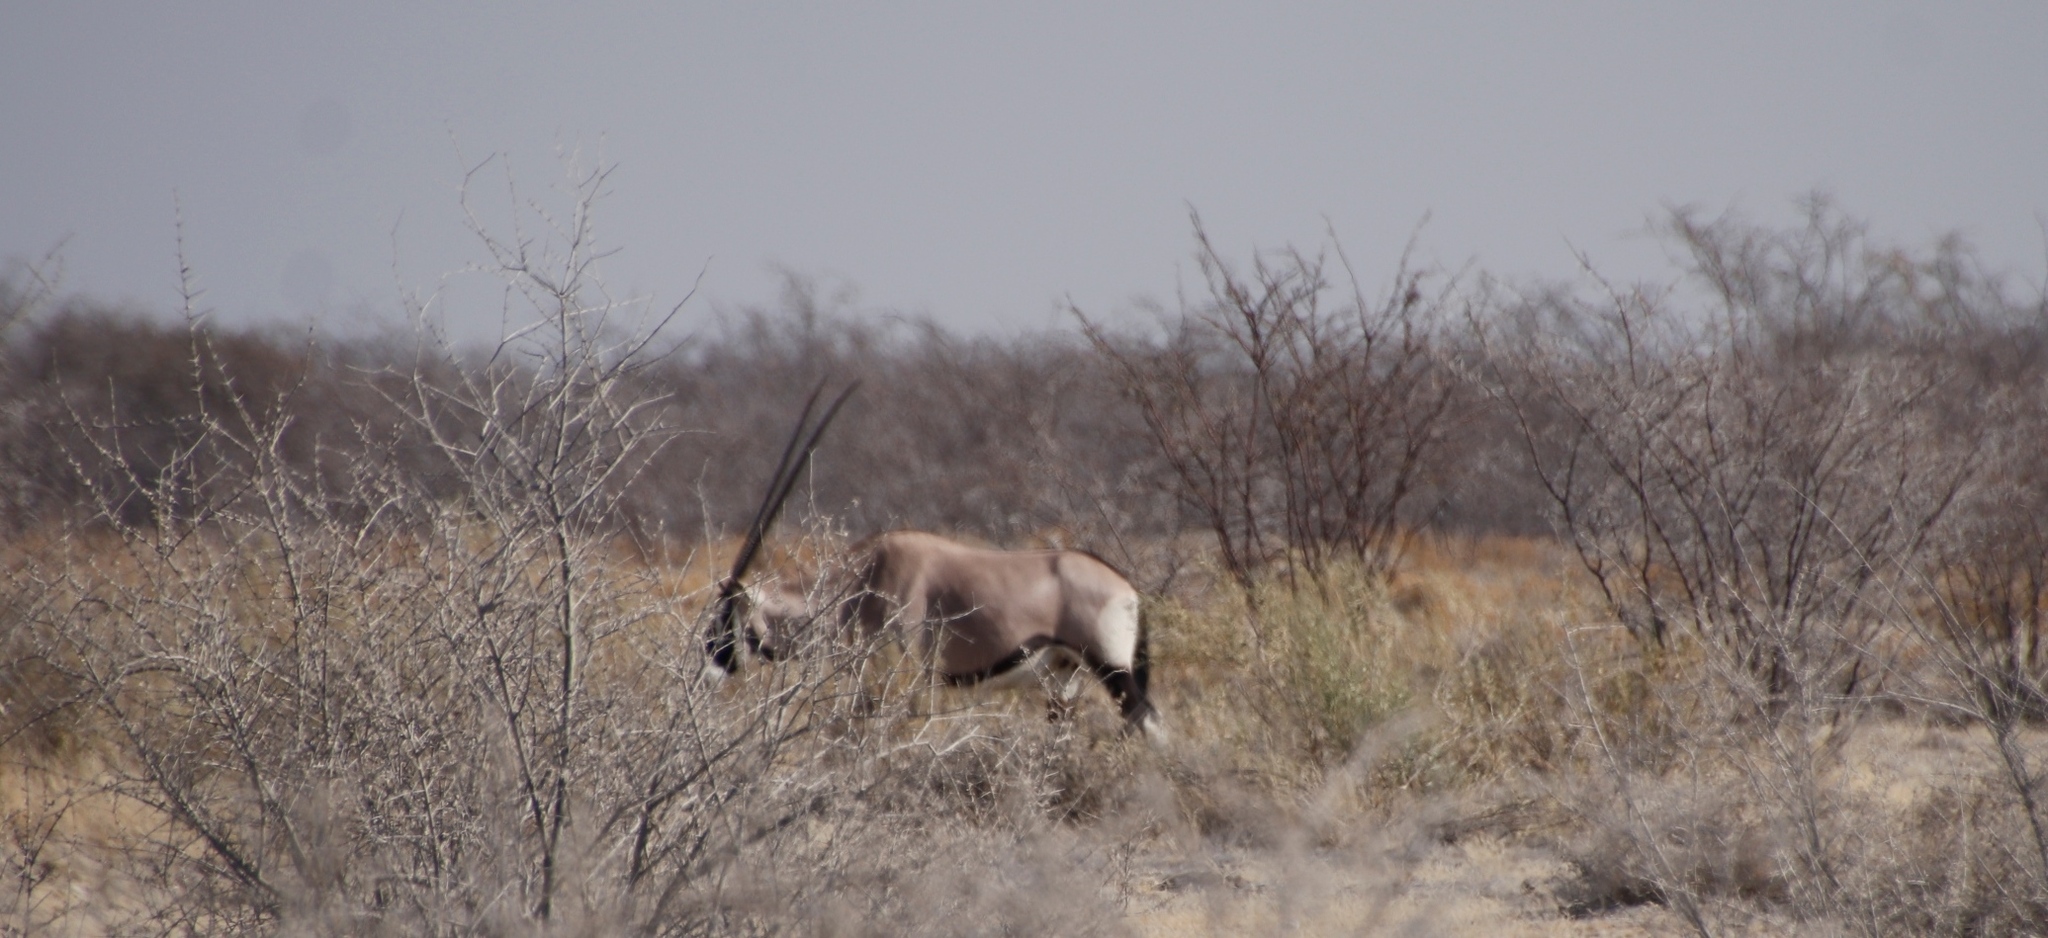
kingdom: Animalia
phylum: Chordata
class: Mammalia
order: Artiodactyla
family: Bovidae
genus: Oryx
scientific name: Oryx gazella
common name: Gemsbok
